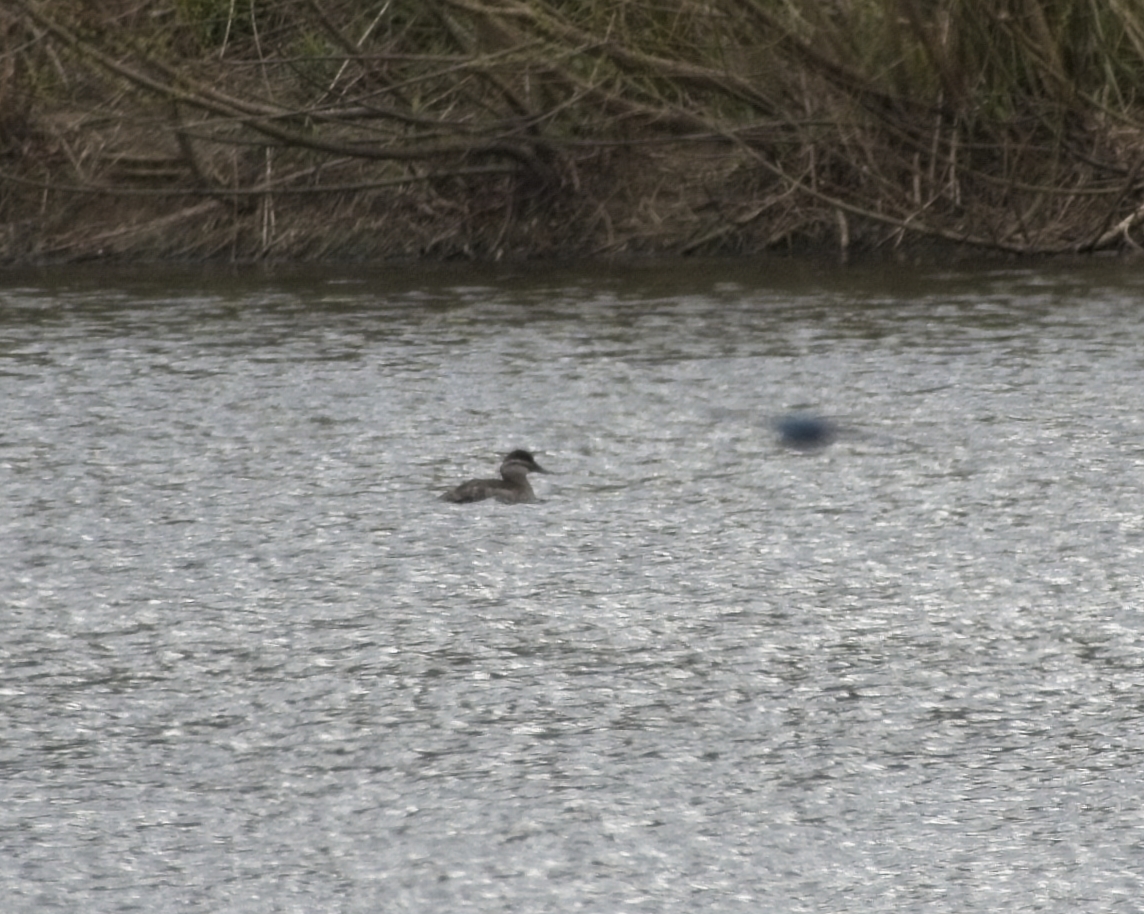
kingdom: Animalia
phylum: Chordata
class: Aves
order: Anseriformes
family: Anatidae
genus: Oxyura
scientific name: Oxyura jamaicensis
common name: Ruddy duck
